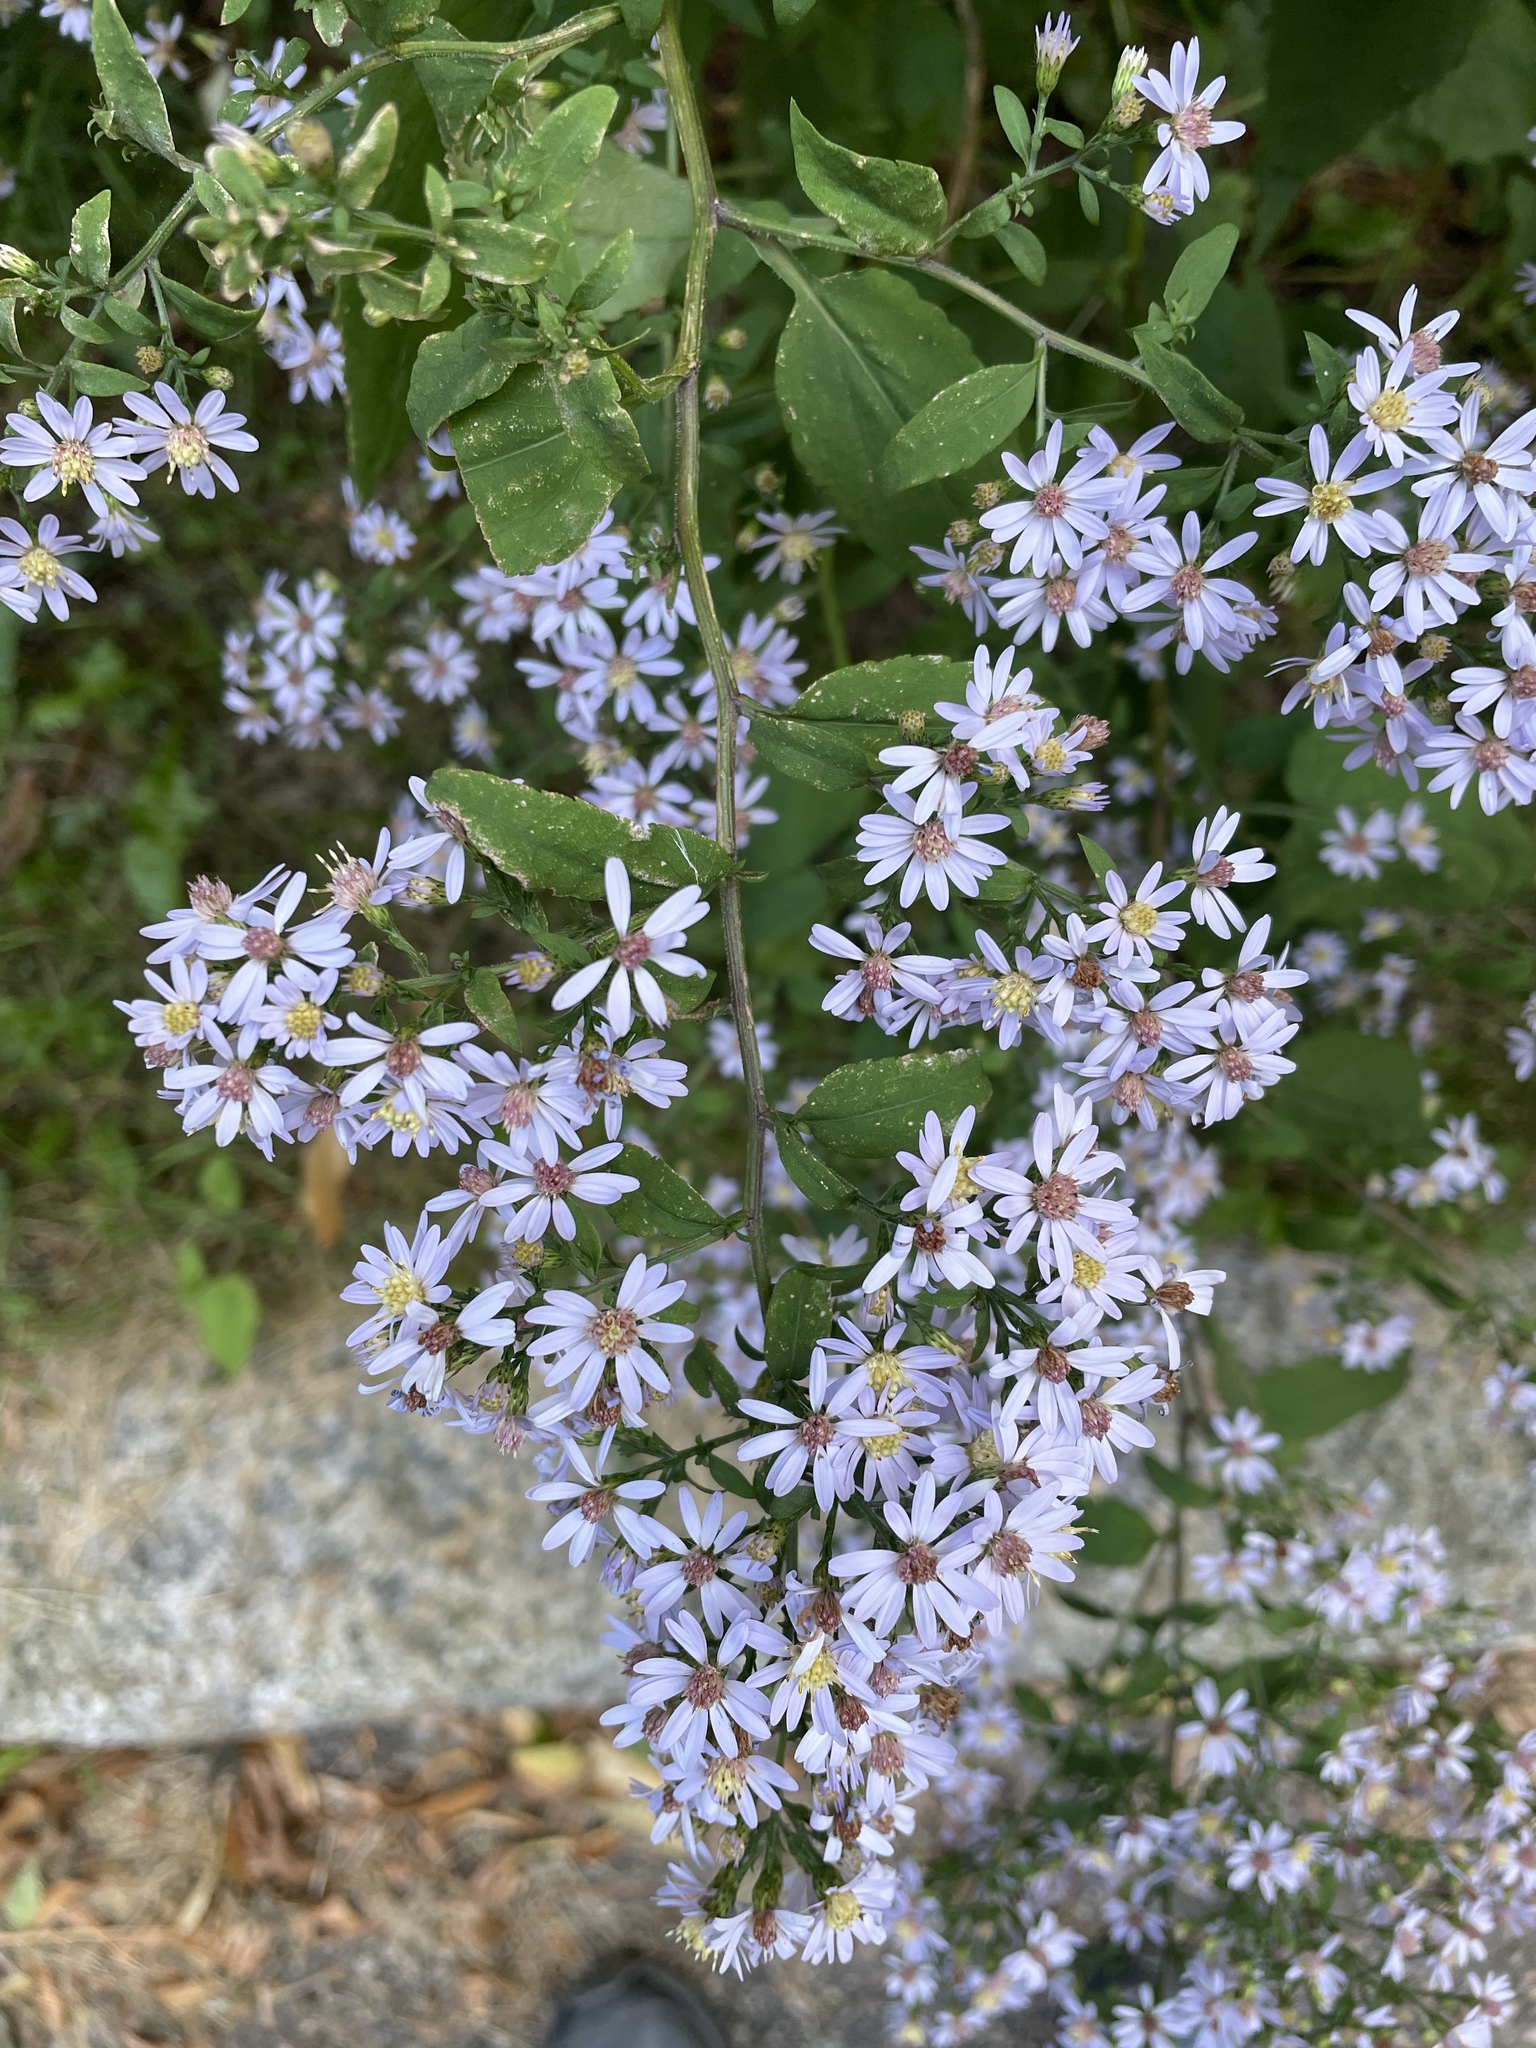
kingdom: Plantae
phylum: Tracheophyta
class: Magnoliopsida
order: Asterales
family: Asteraceae
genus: Symphyotrichum
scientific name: Symphyotrichum cordifolium
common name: Beeweed
